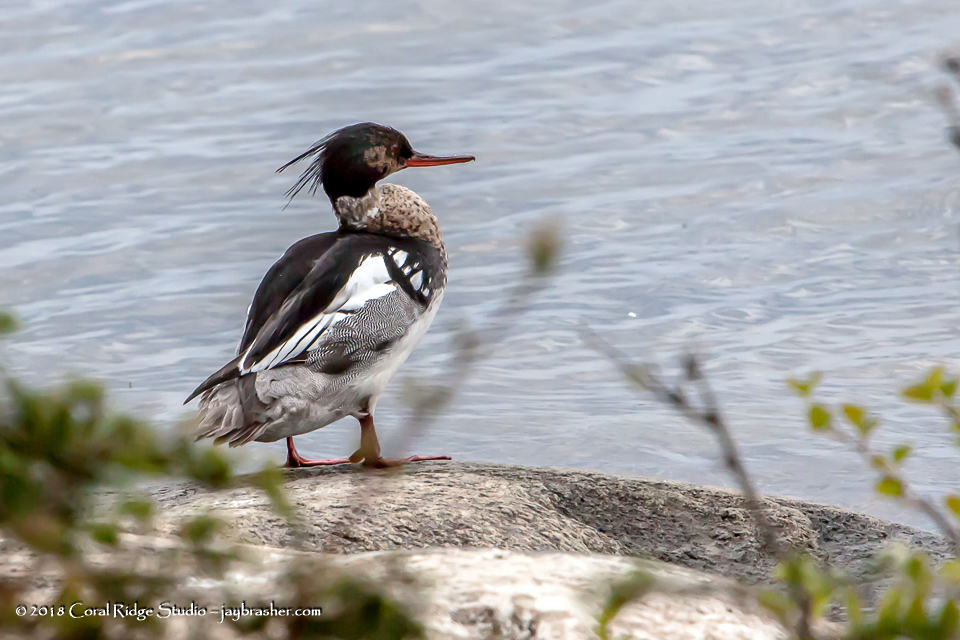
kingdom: Animalia
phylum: Chordata
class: Aves
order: Anseriformes
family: Anatidae
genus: Mergus
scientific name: Mergus serrator
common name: Red-breasted merganser
